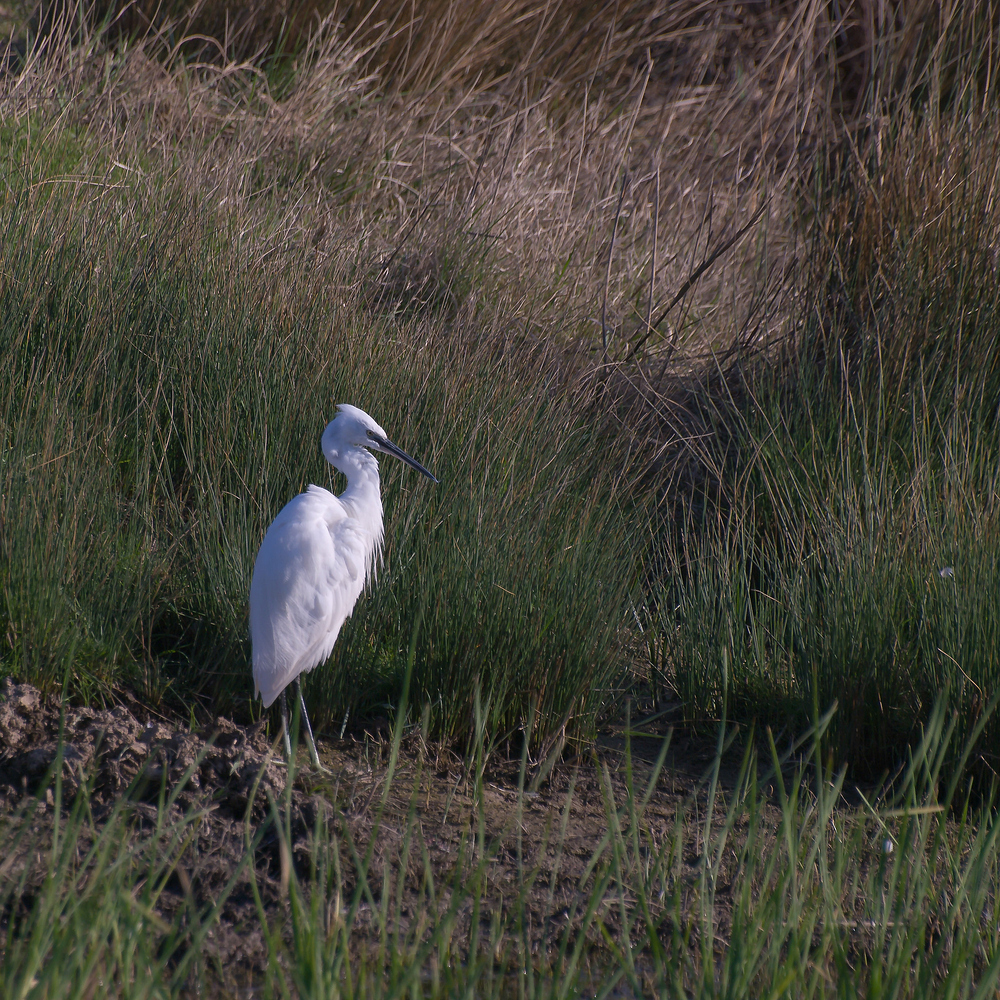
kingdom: Animalia
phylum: Chordata
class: Aves
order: Pelecaniformes
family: Ardeidae
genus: Egretta
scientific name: Egretta garzetta
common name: Little egret
